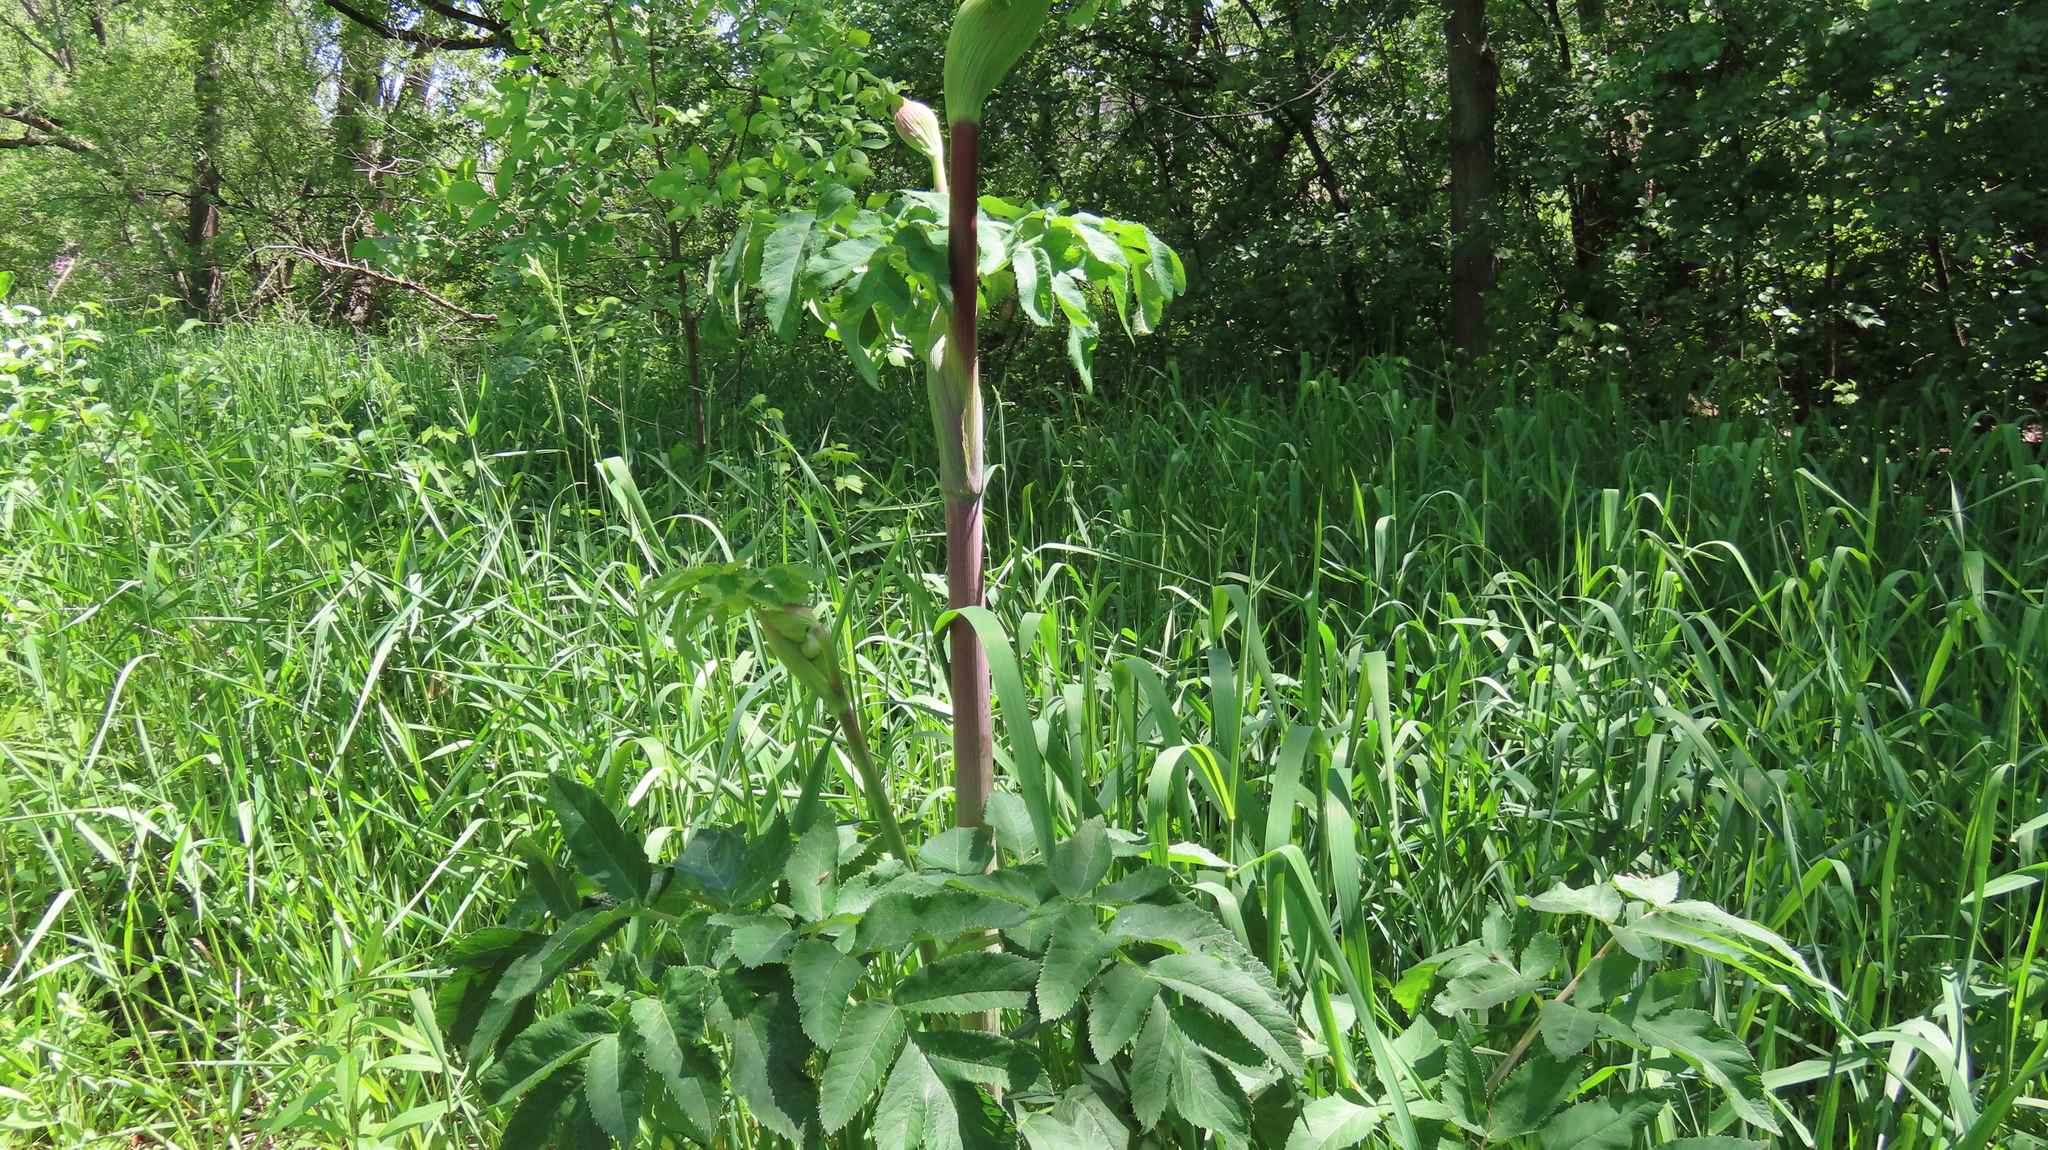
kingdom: Plantae
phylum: Tracheophyta
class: Magnoliopsida
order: Apiales
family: Apiaceae
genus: Angelica
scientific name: Angelica atropurpurea
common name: Great angelica
